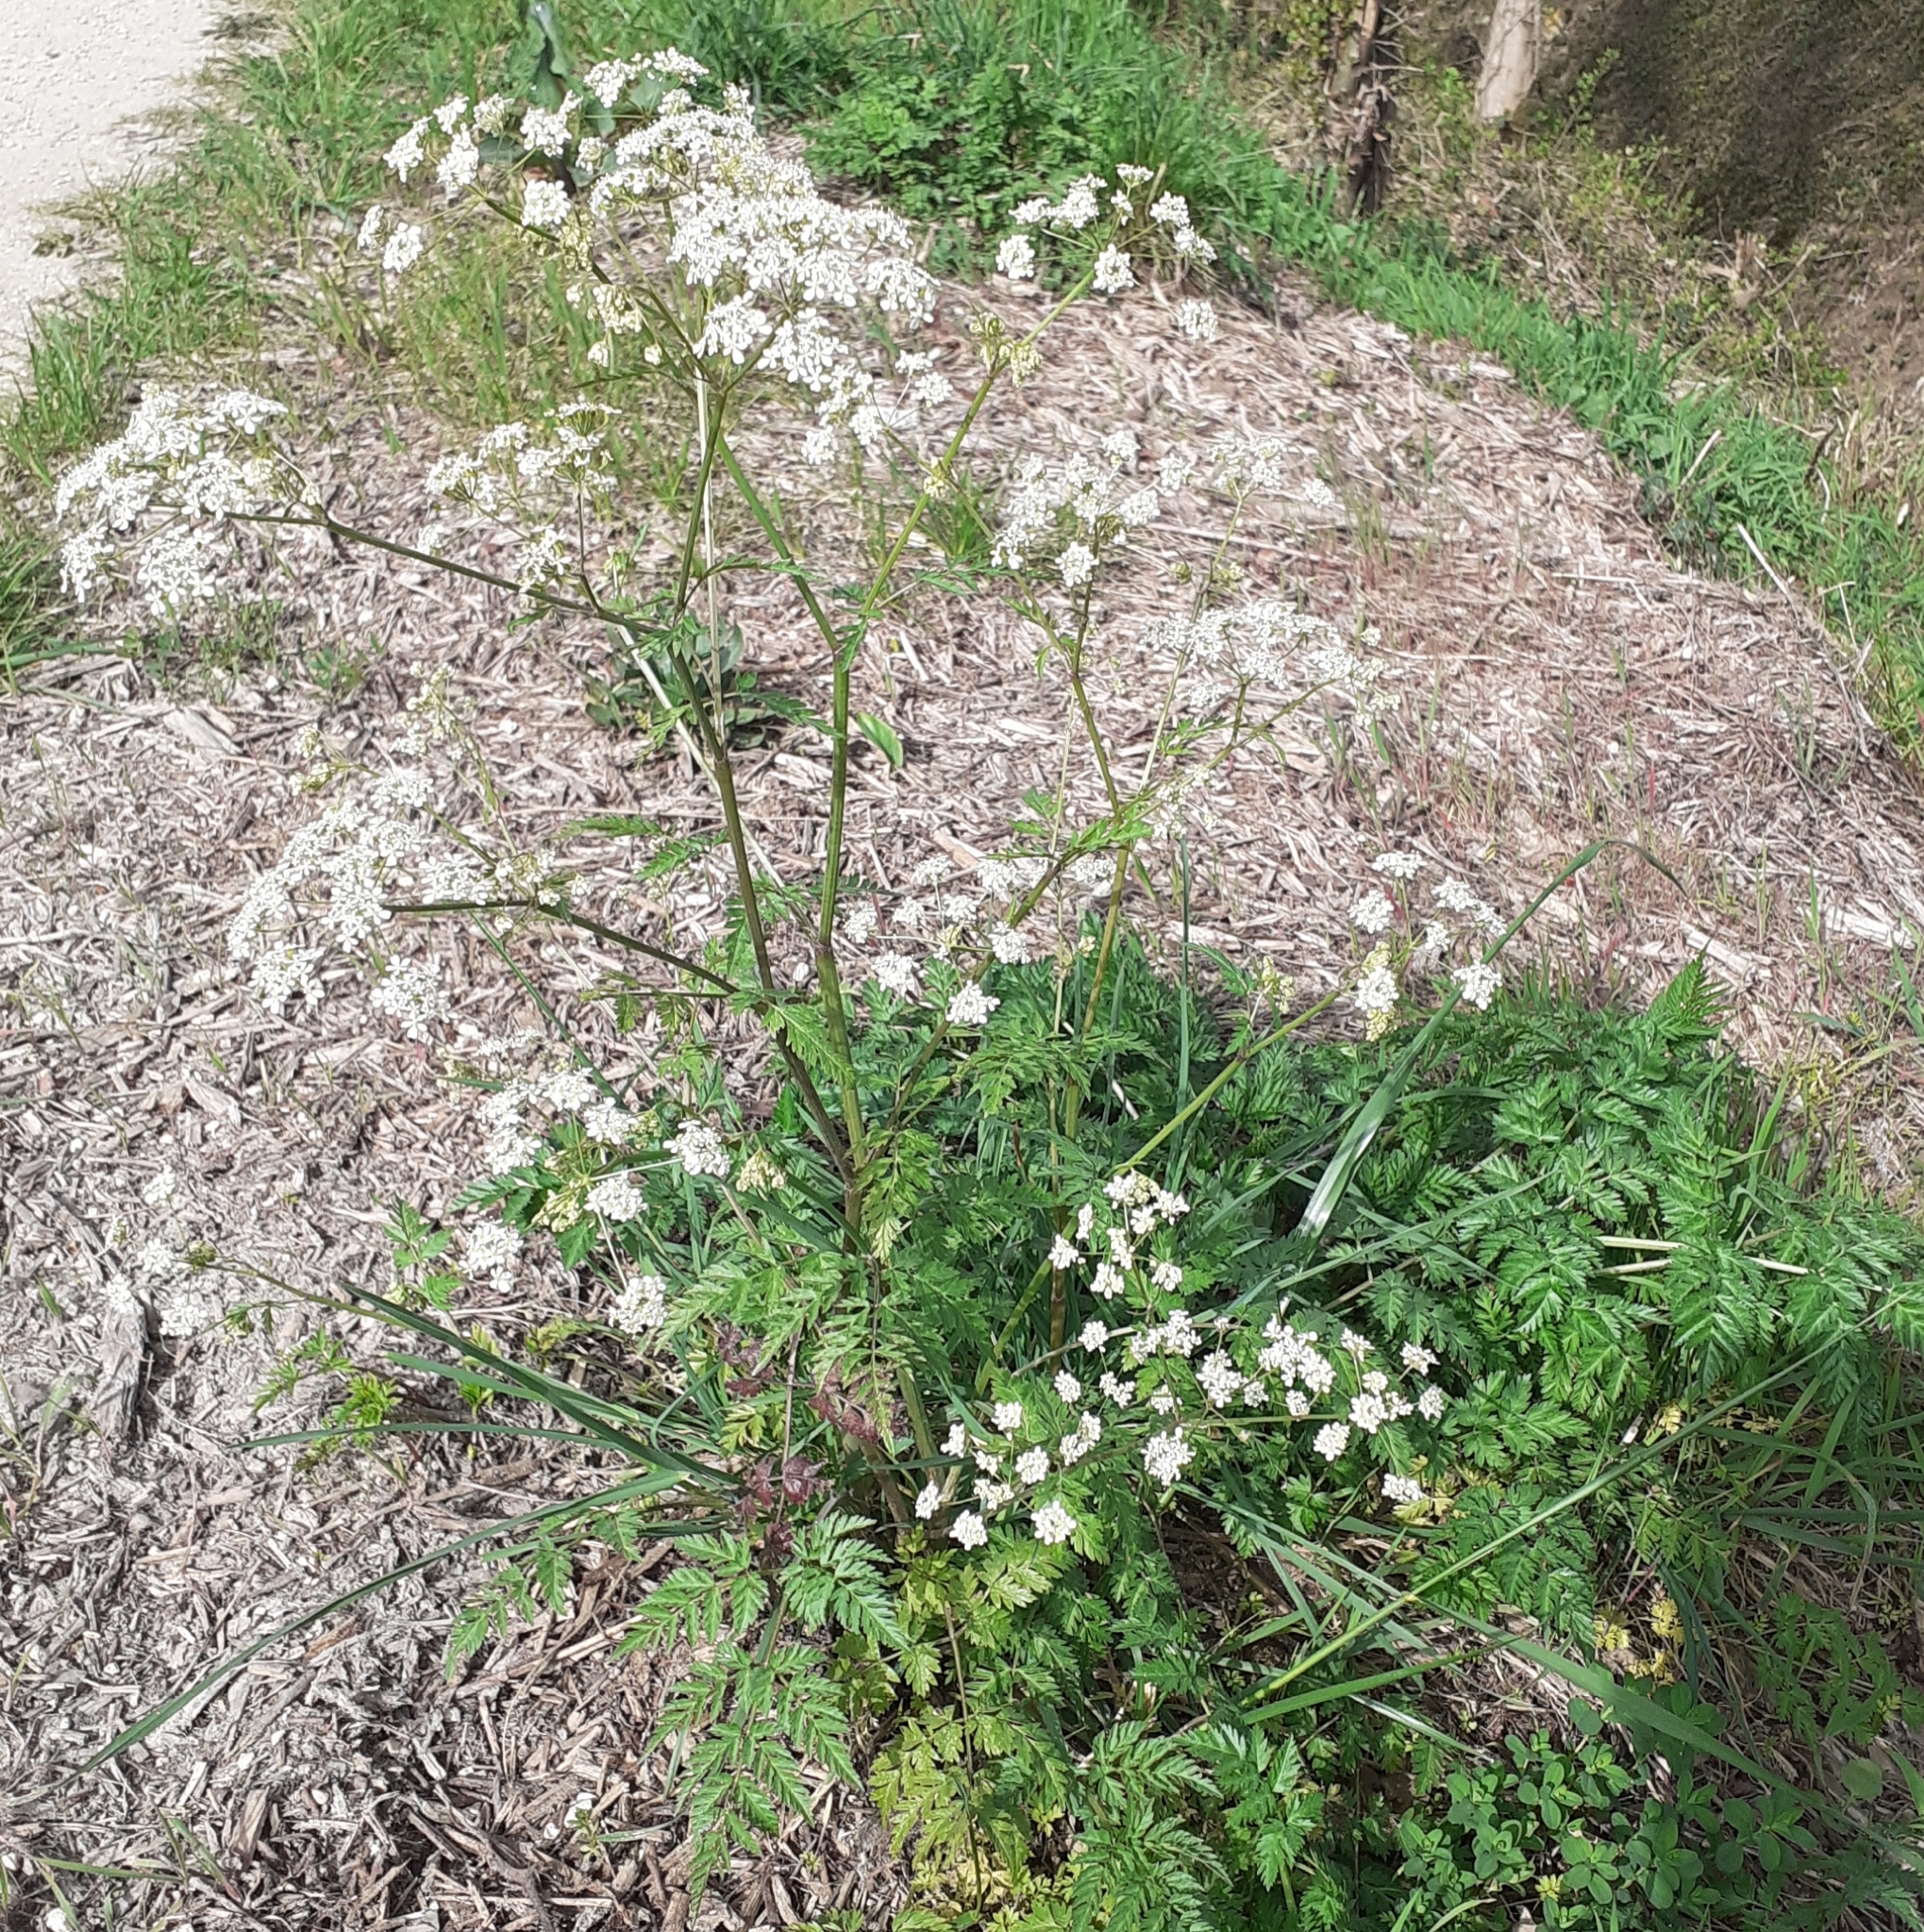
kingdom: Plantae
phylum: Tracheophyta
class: Magnoliopsida
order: Apiales
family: Apiaceae
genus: Anthriscus
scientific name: Anthriscus sylvestris
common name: Cow parsley
